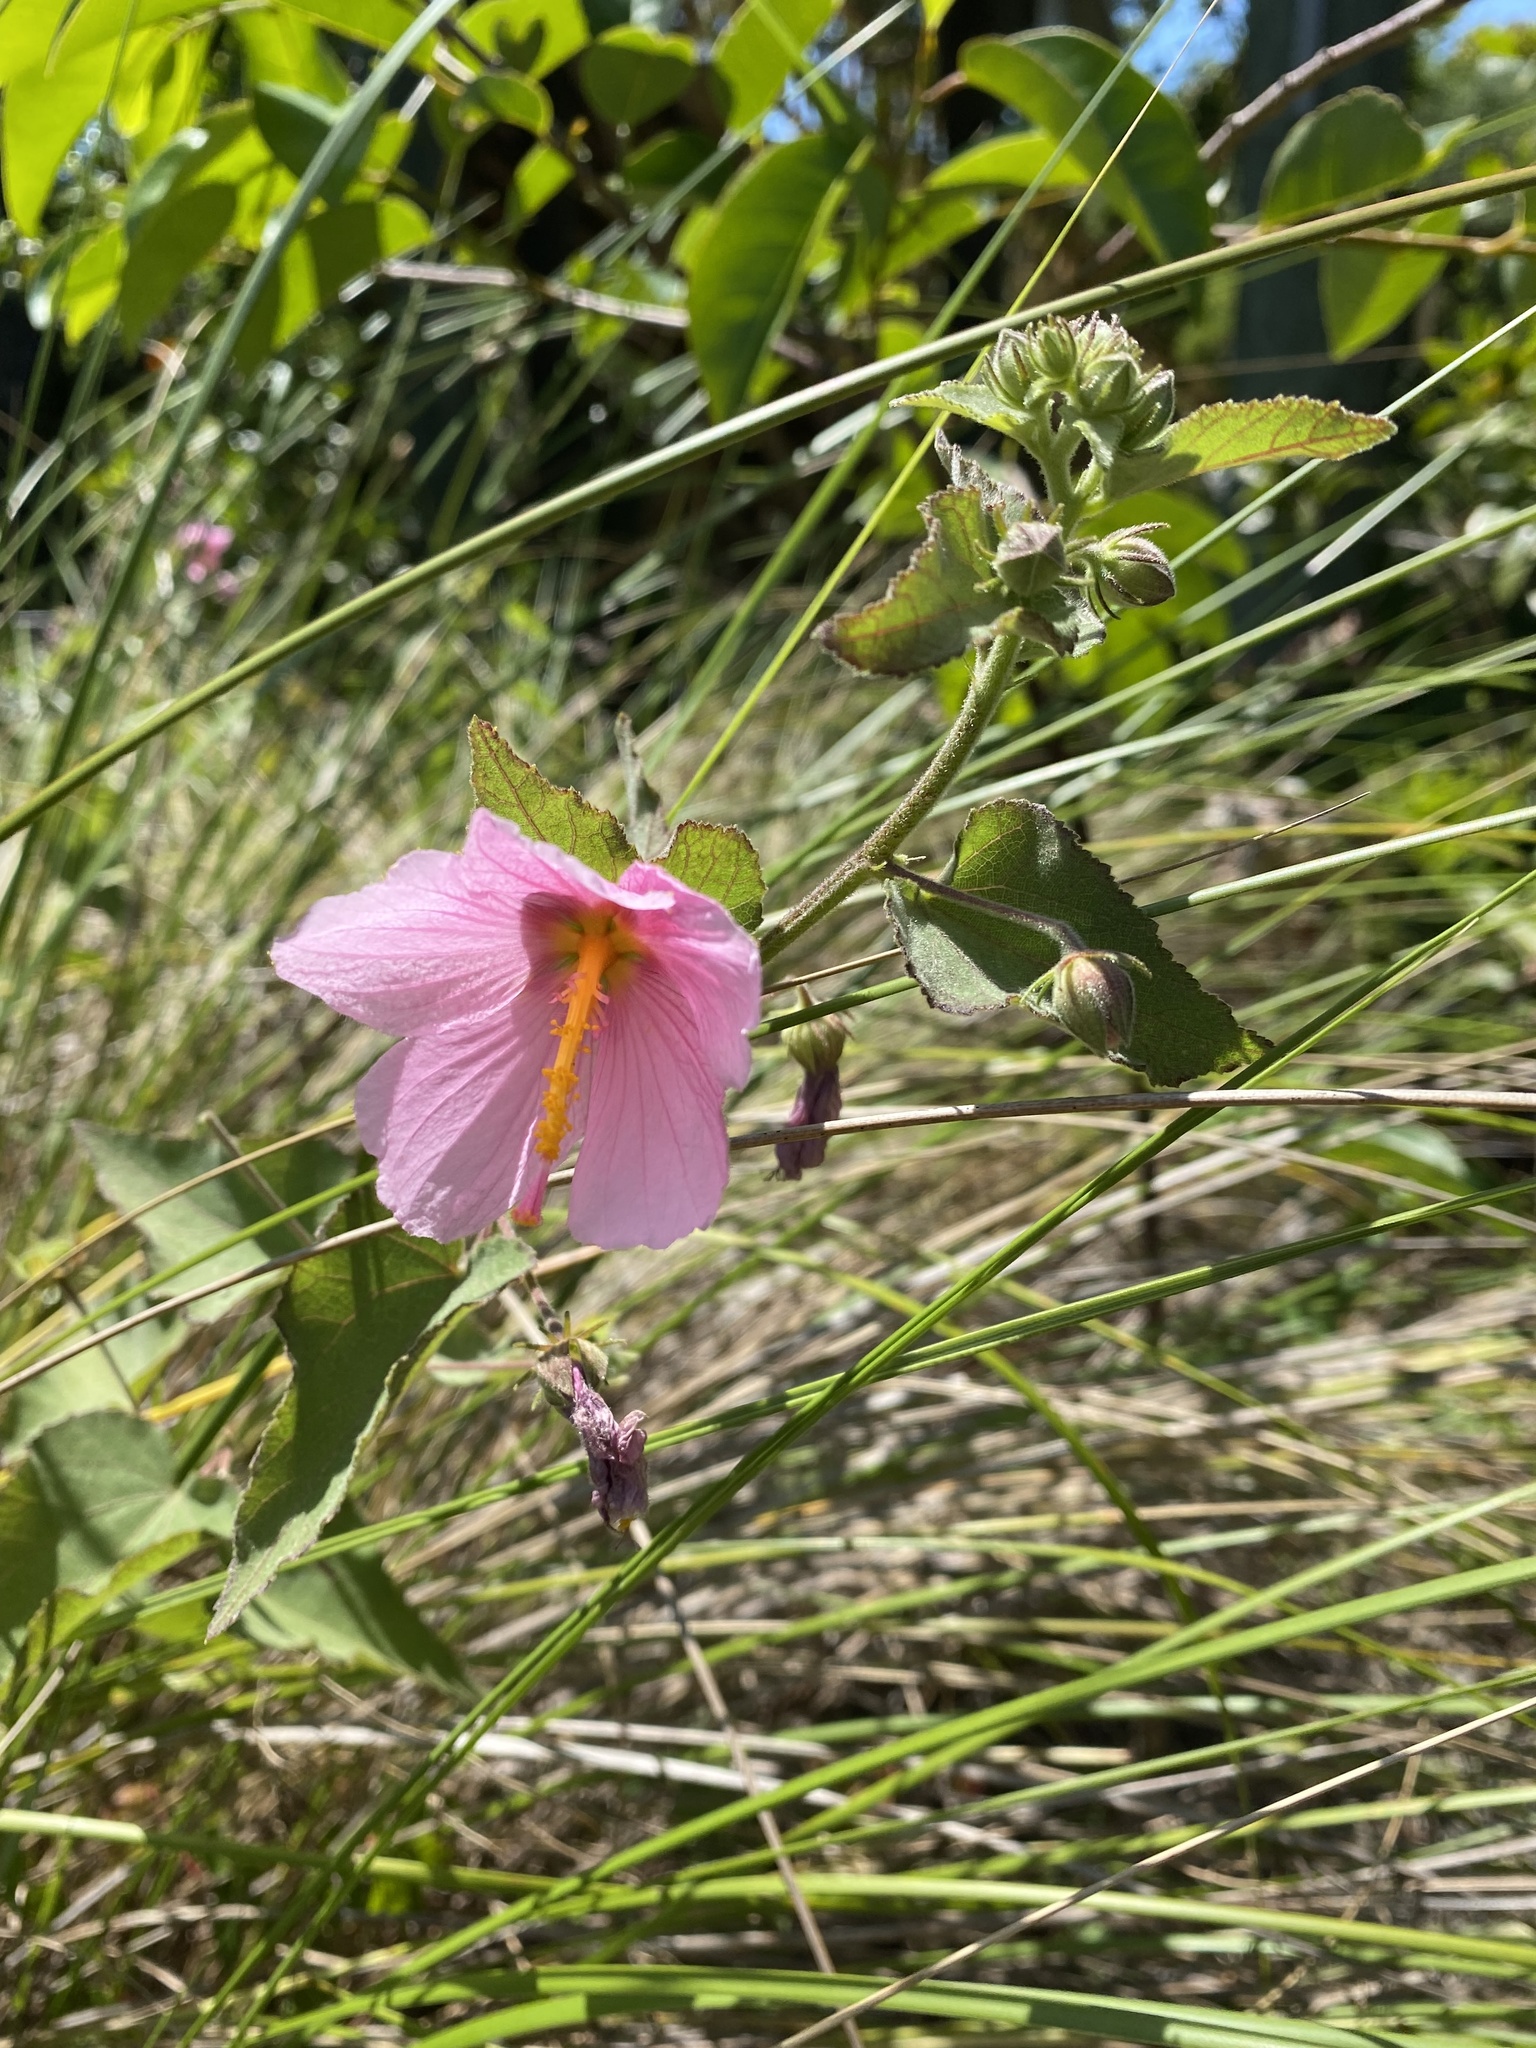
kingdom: Plantae
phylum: Tracheophyta
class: Magnoliopsida
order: Malvales
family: Malvaceae
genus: Kosteletzkya
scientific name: Kosteletzkya pentacarpos
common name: Virginia saltmarsh mallow
